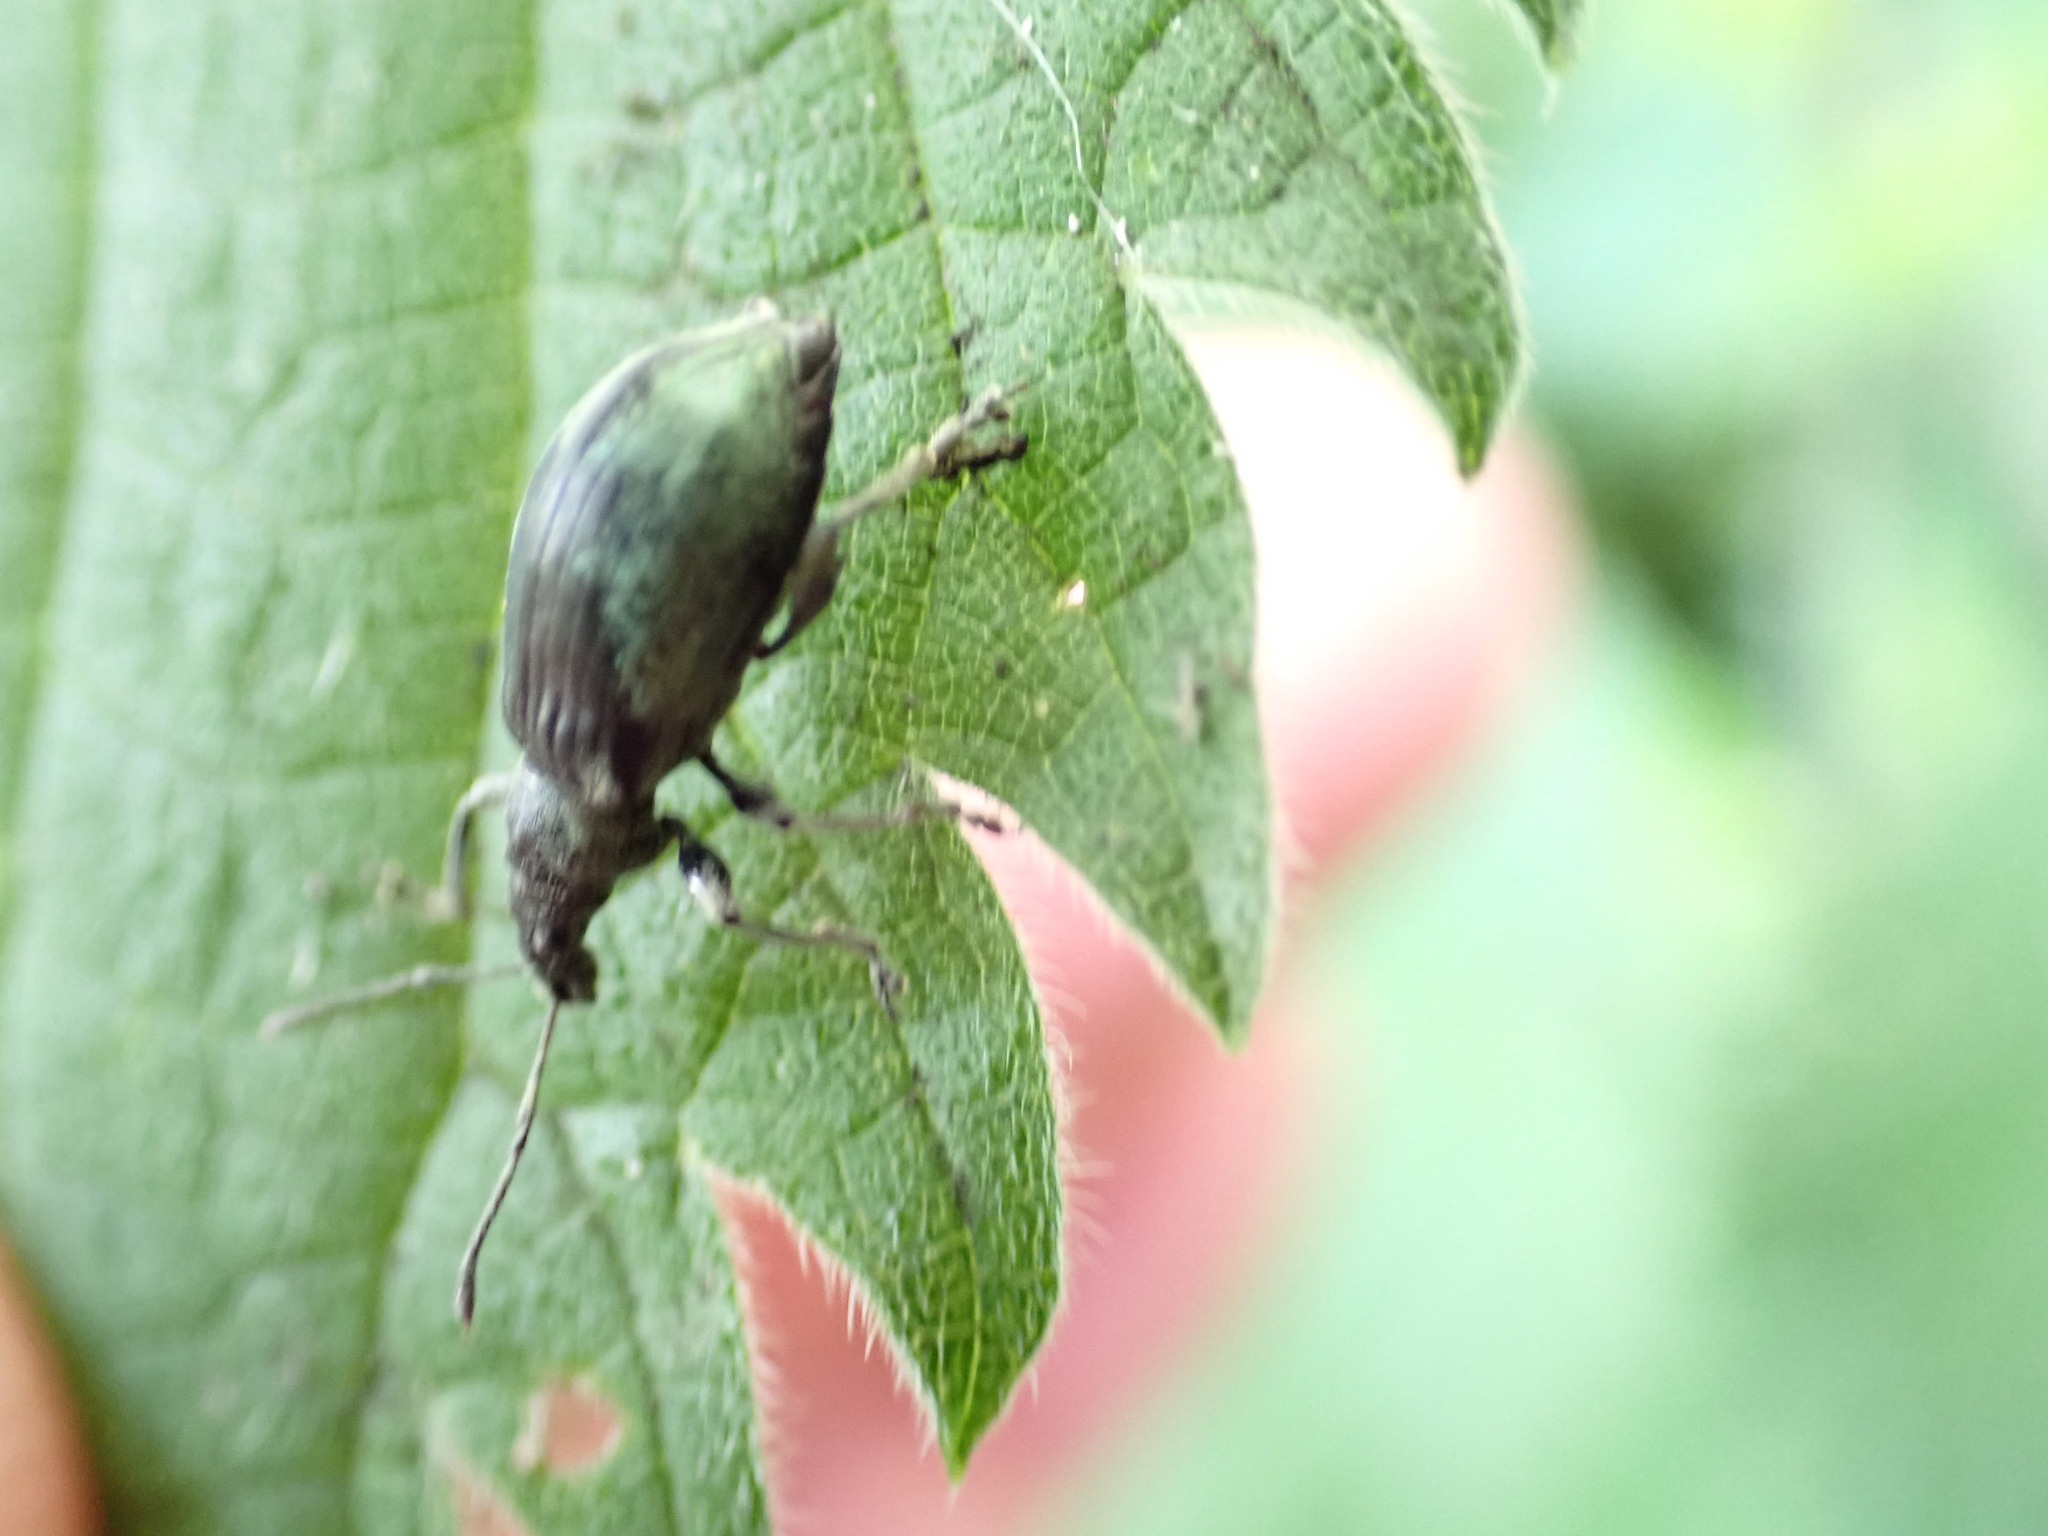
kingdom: Animalia
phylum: Arthropoda
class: Insecta
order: Coleoptera
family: Curculionidae
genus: Phyllobius
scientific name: Phyllobius pomaceus
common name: Green nettle weevil
